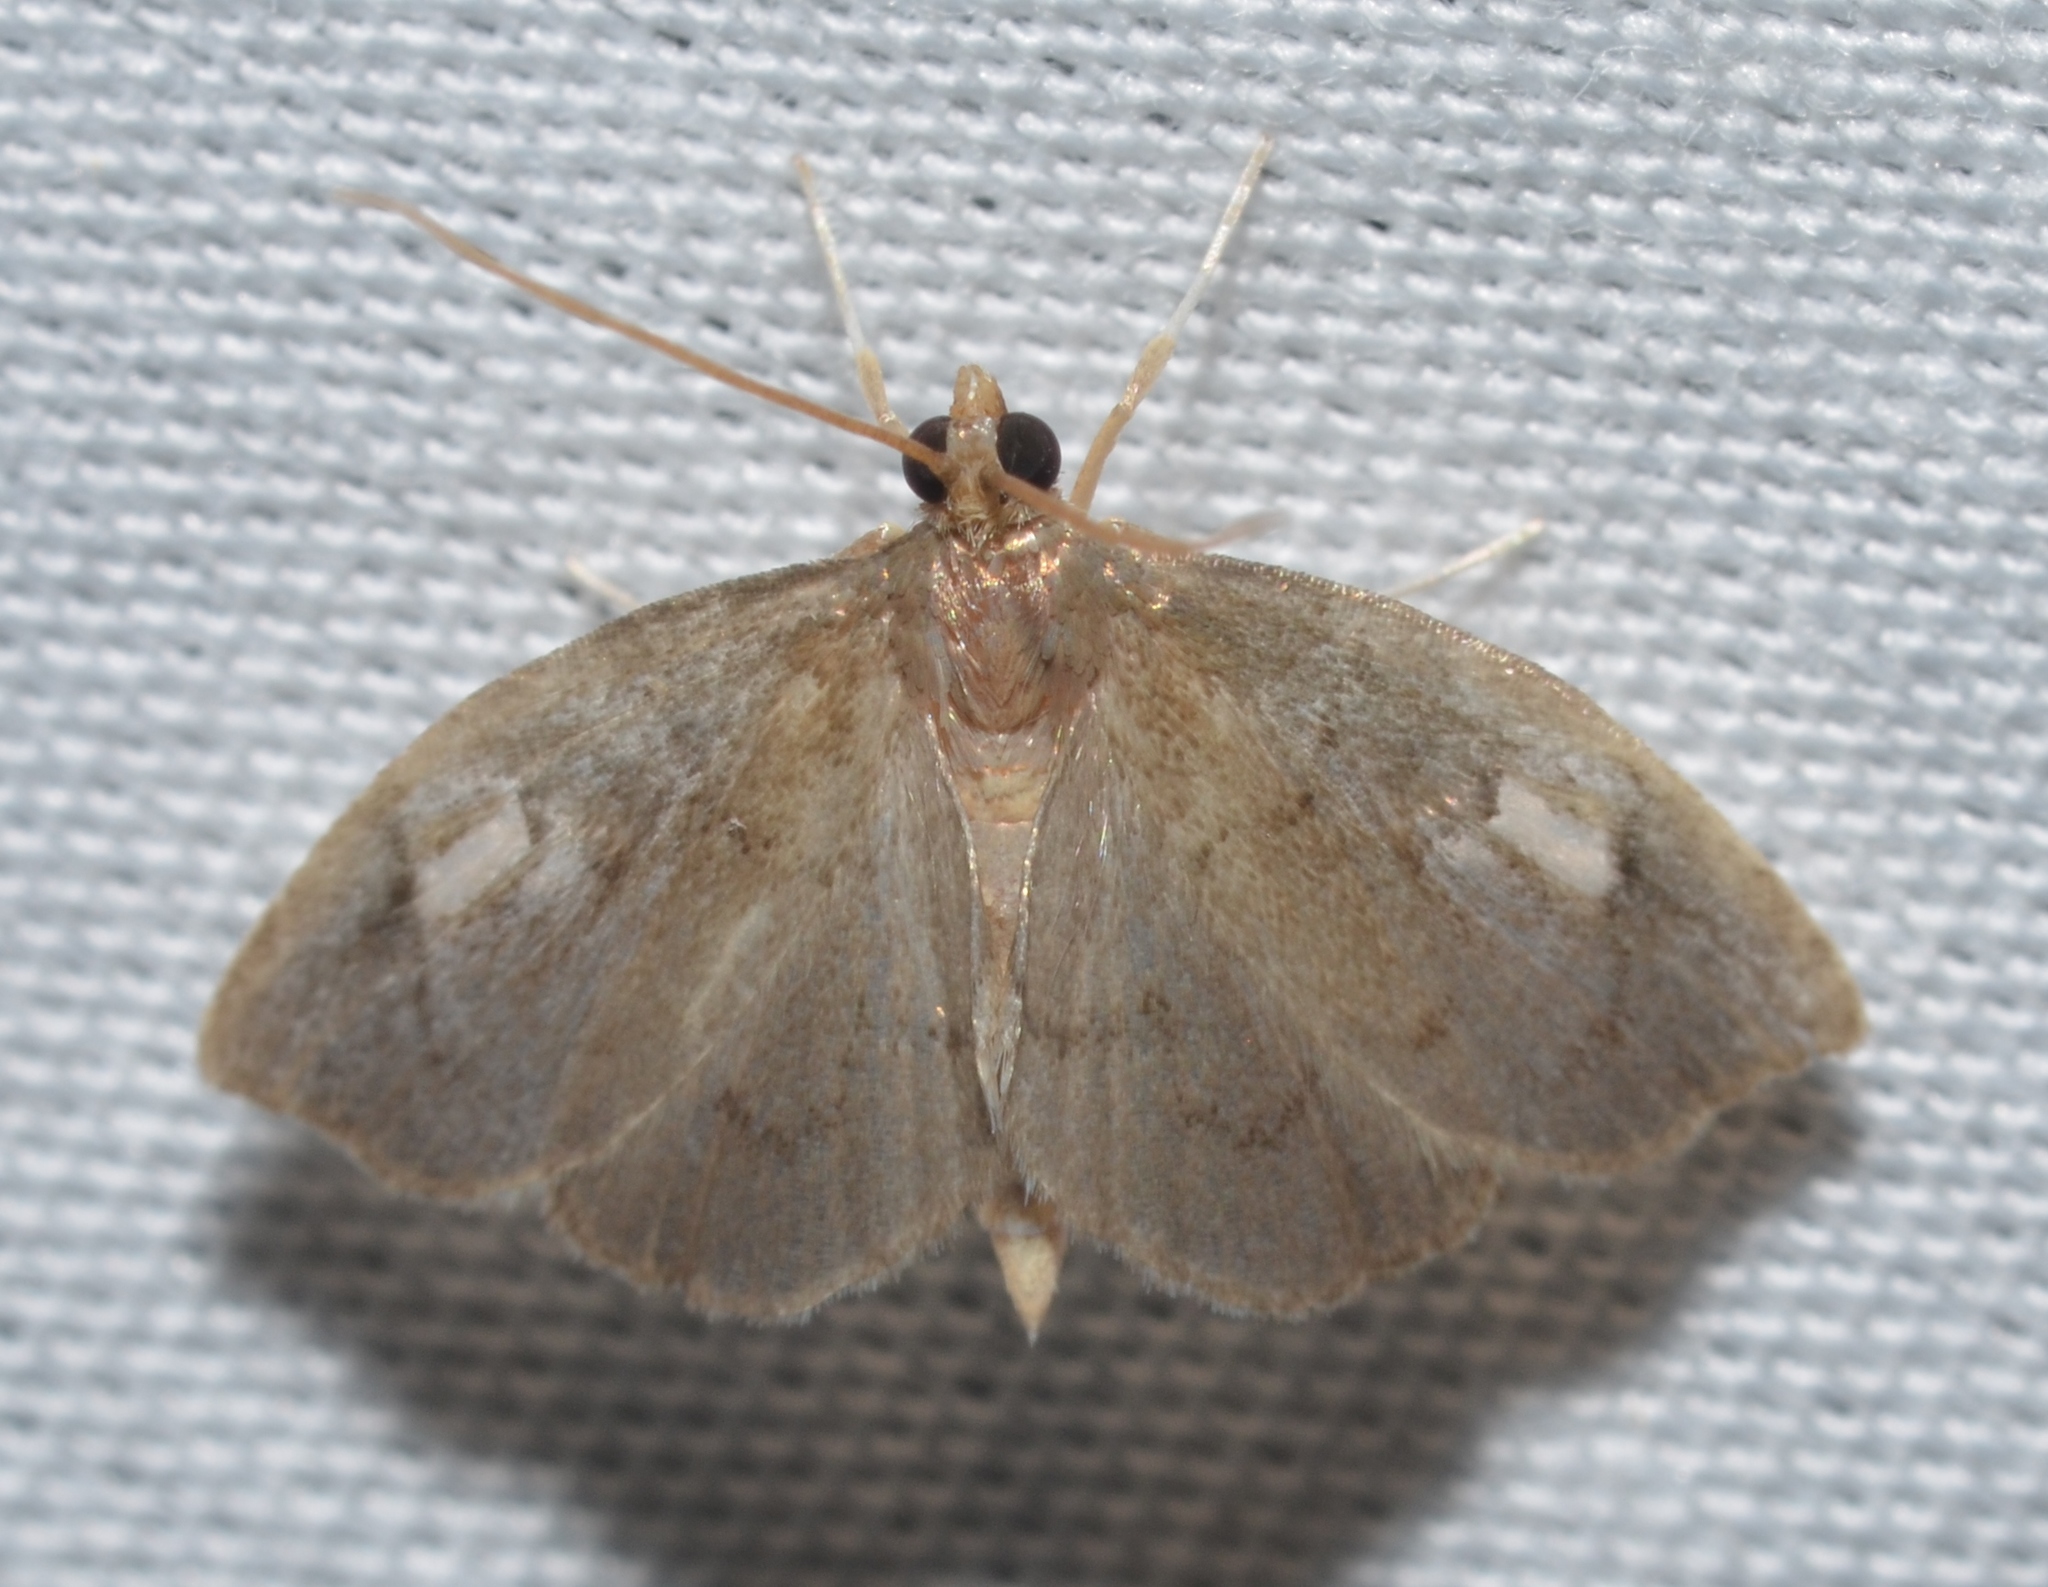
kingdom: Animalia
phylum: Arthropoda
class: Insecta
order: Lepidoptera
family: Crambidae
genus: Perispasta
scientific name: Perispasta caeculalis
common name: Titian peale's moth
